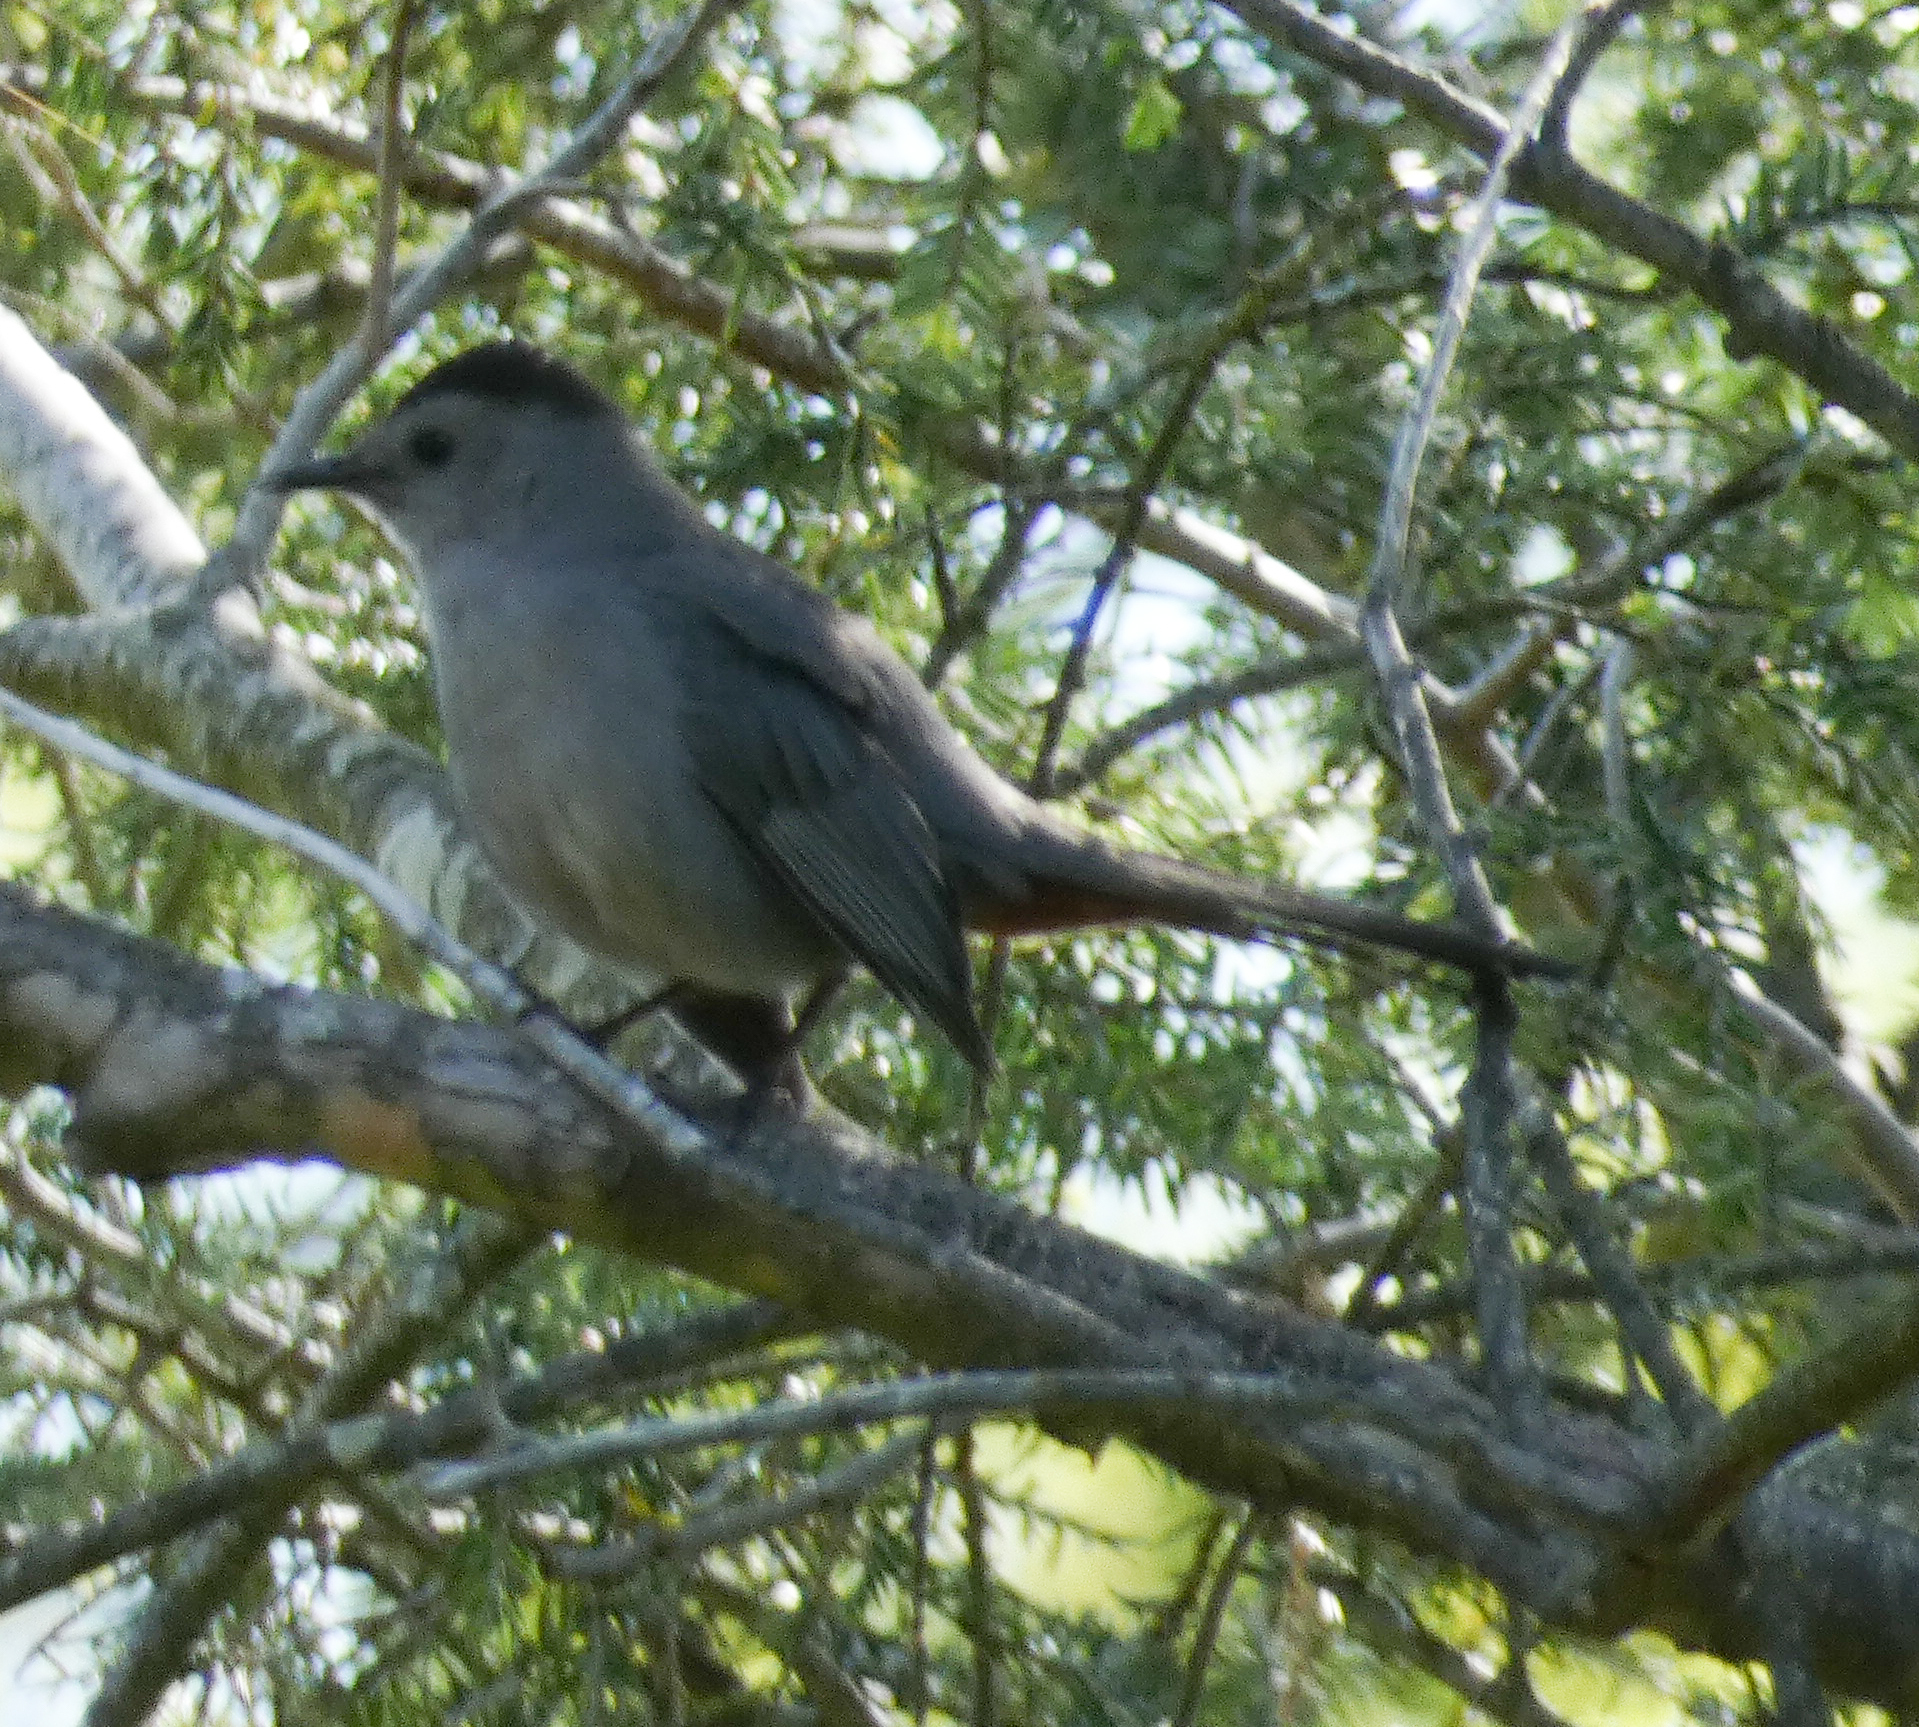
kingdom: Animalia
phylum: Chordata
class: Aves
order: Passeriformes
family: Mimidae
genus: Dumetella
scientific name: Dumetella carolinensis
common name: Gray catbird
